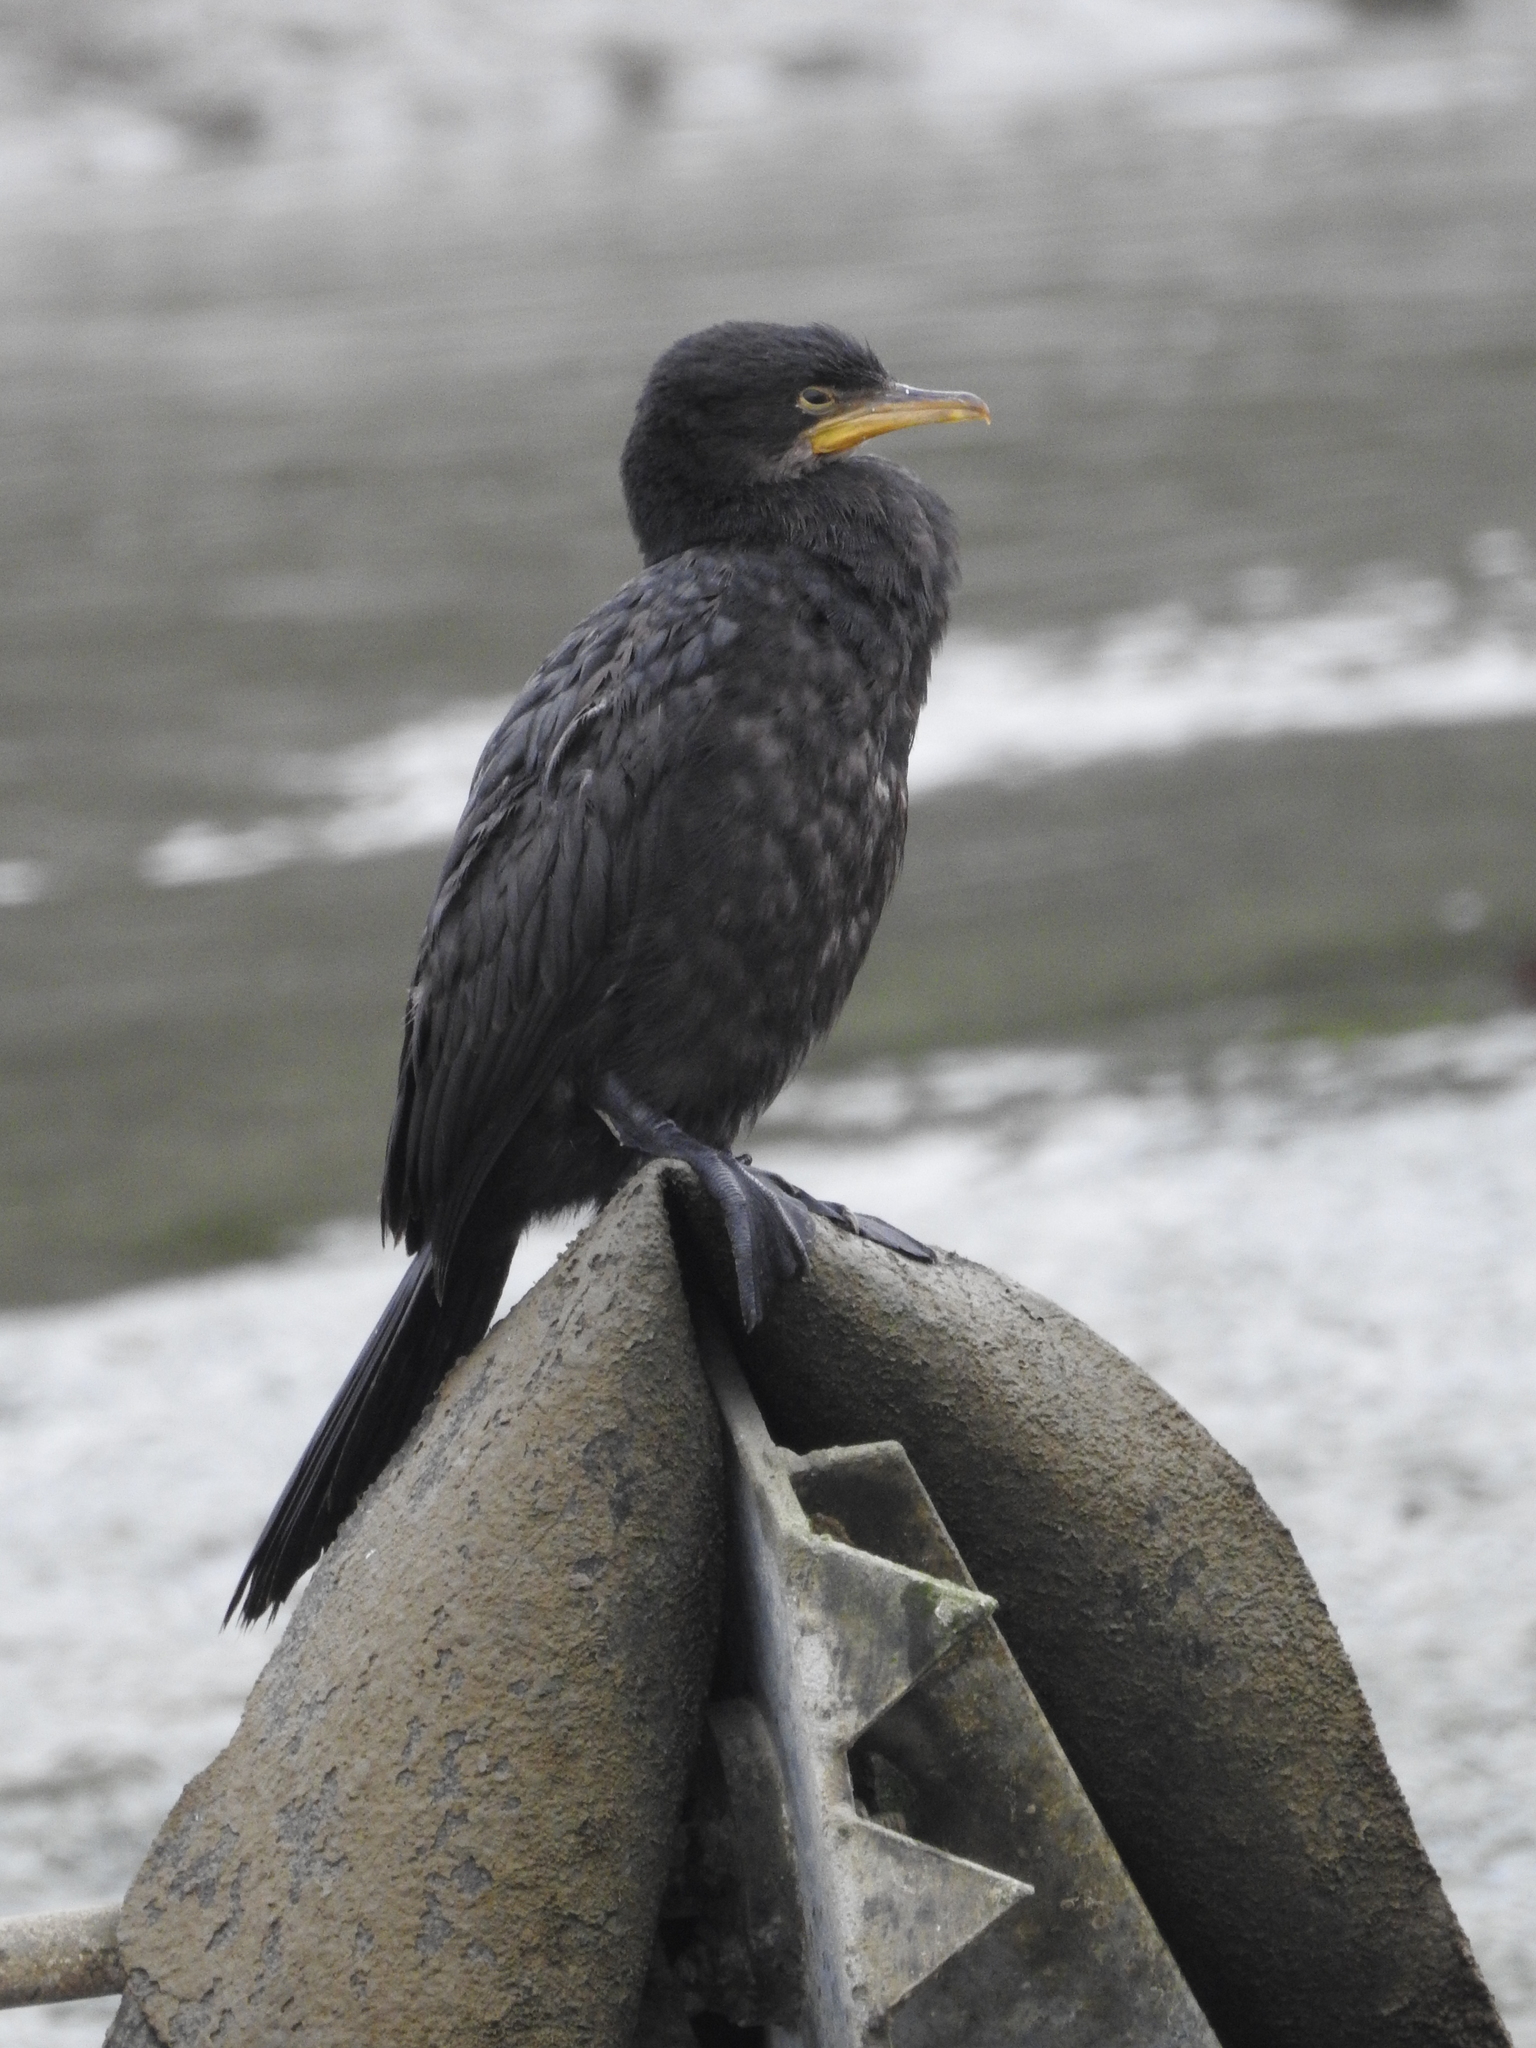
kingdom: Animalia
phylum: Chordata
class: Aves
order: Suliformes
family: Phalacrocoracidae
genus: Microcarbo
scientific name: Microcarbo melanoleucos
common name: Little pied cormorant
